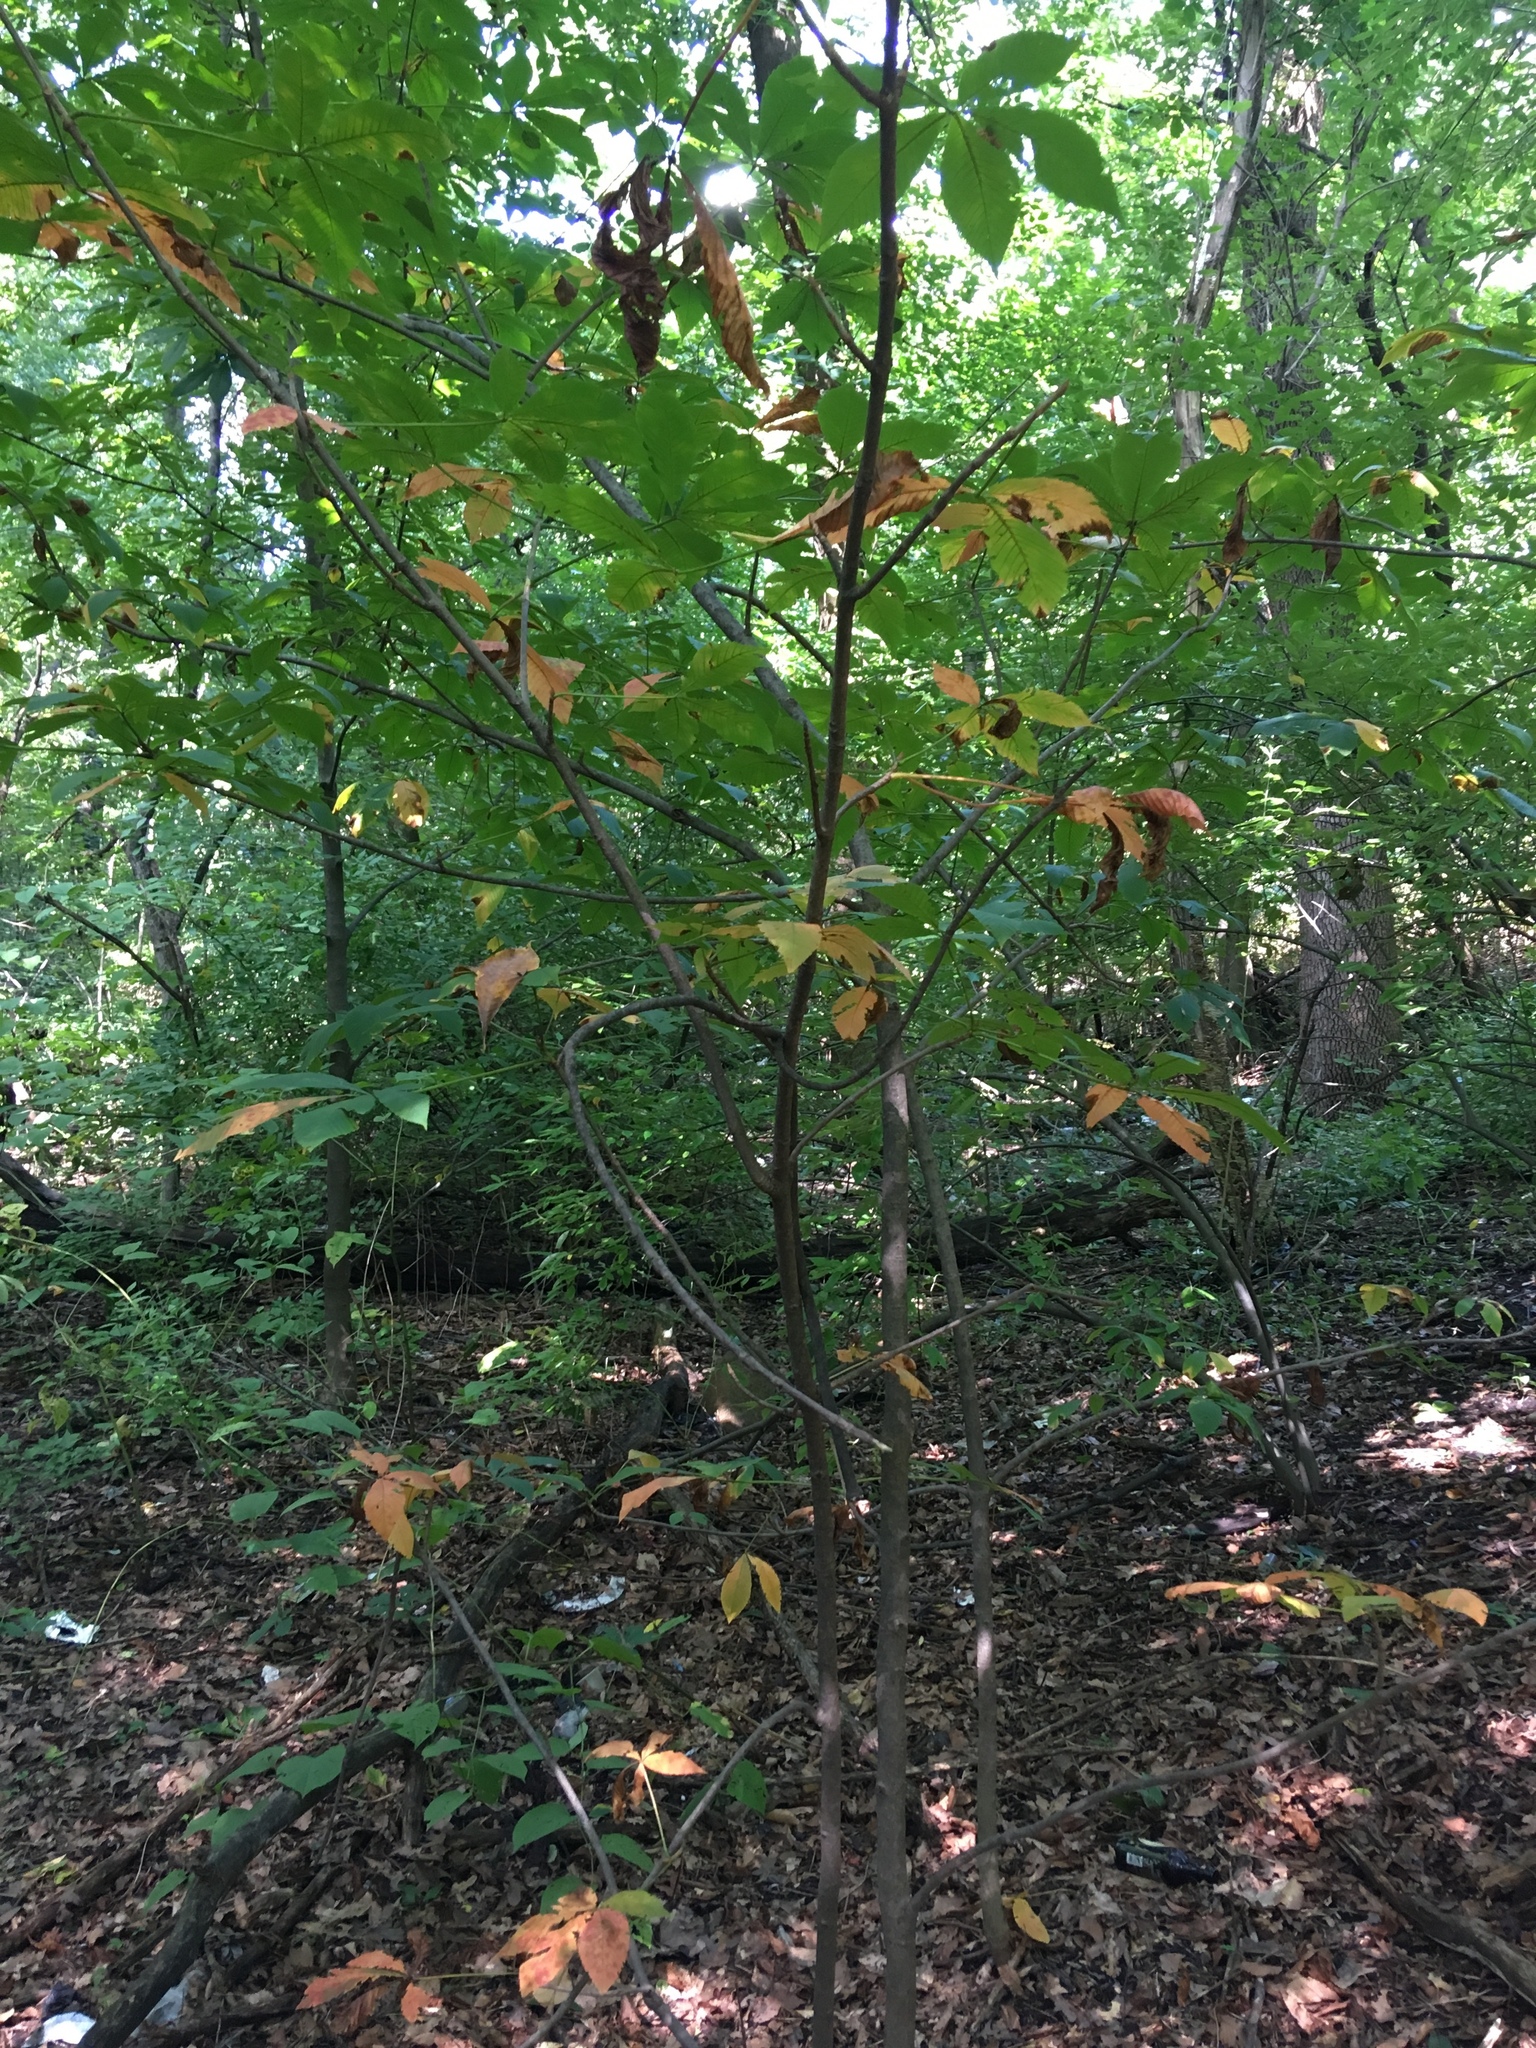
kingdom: Plantae
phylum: Tracheophyta
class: Magnoliopsida
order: Sapindales
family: Sapindaceae
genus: Aesculus
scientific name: Aesculus flava
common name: Yellow buckeye
